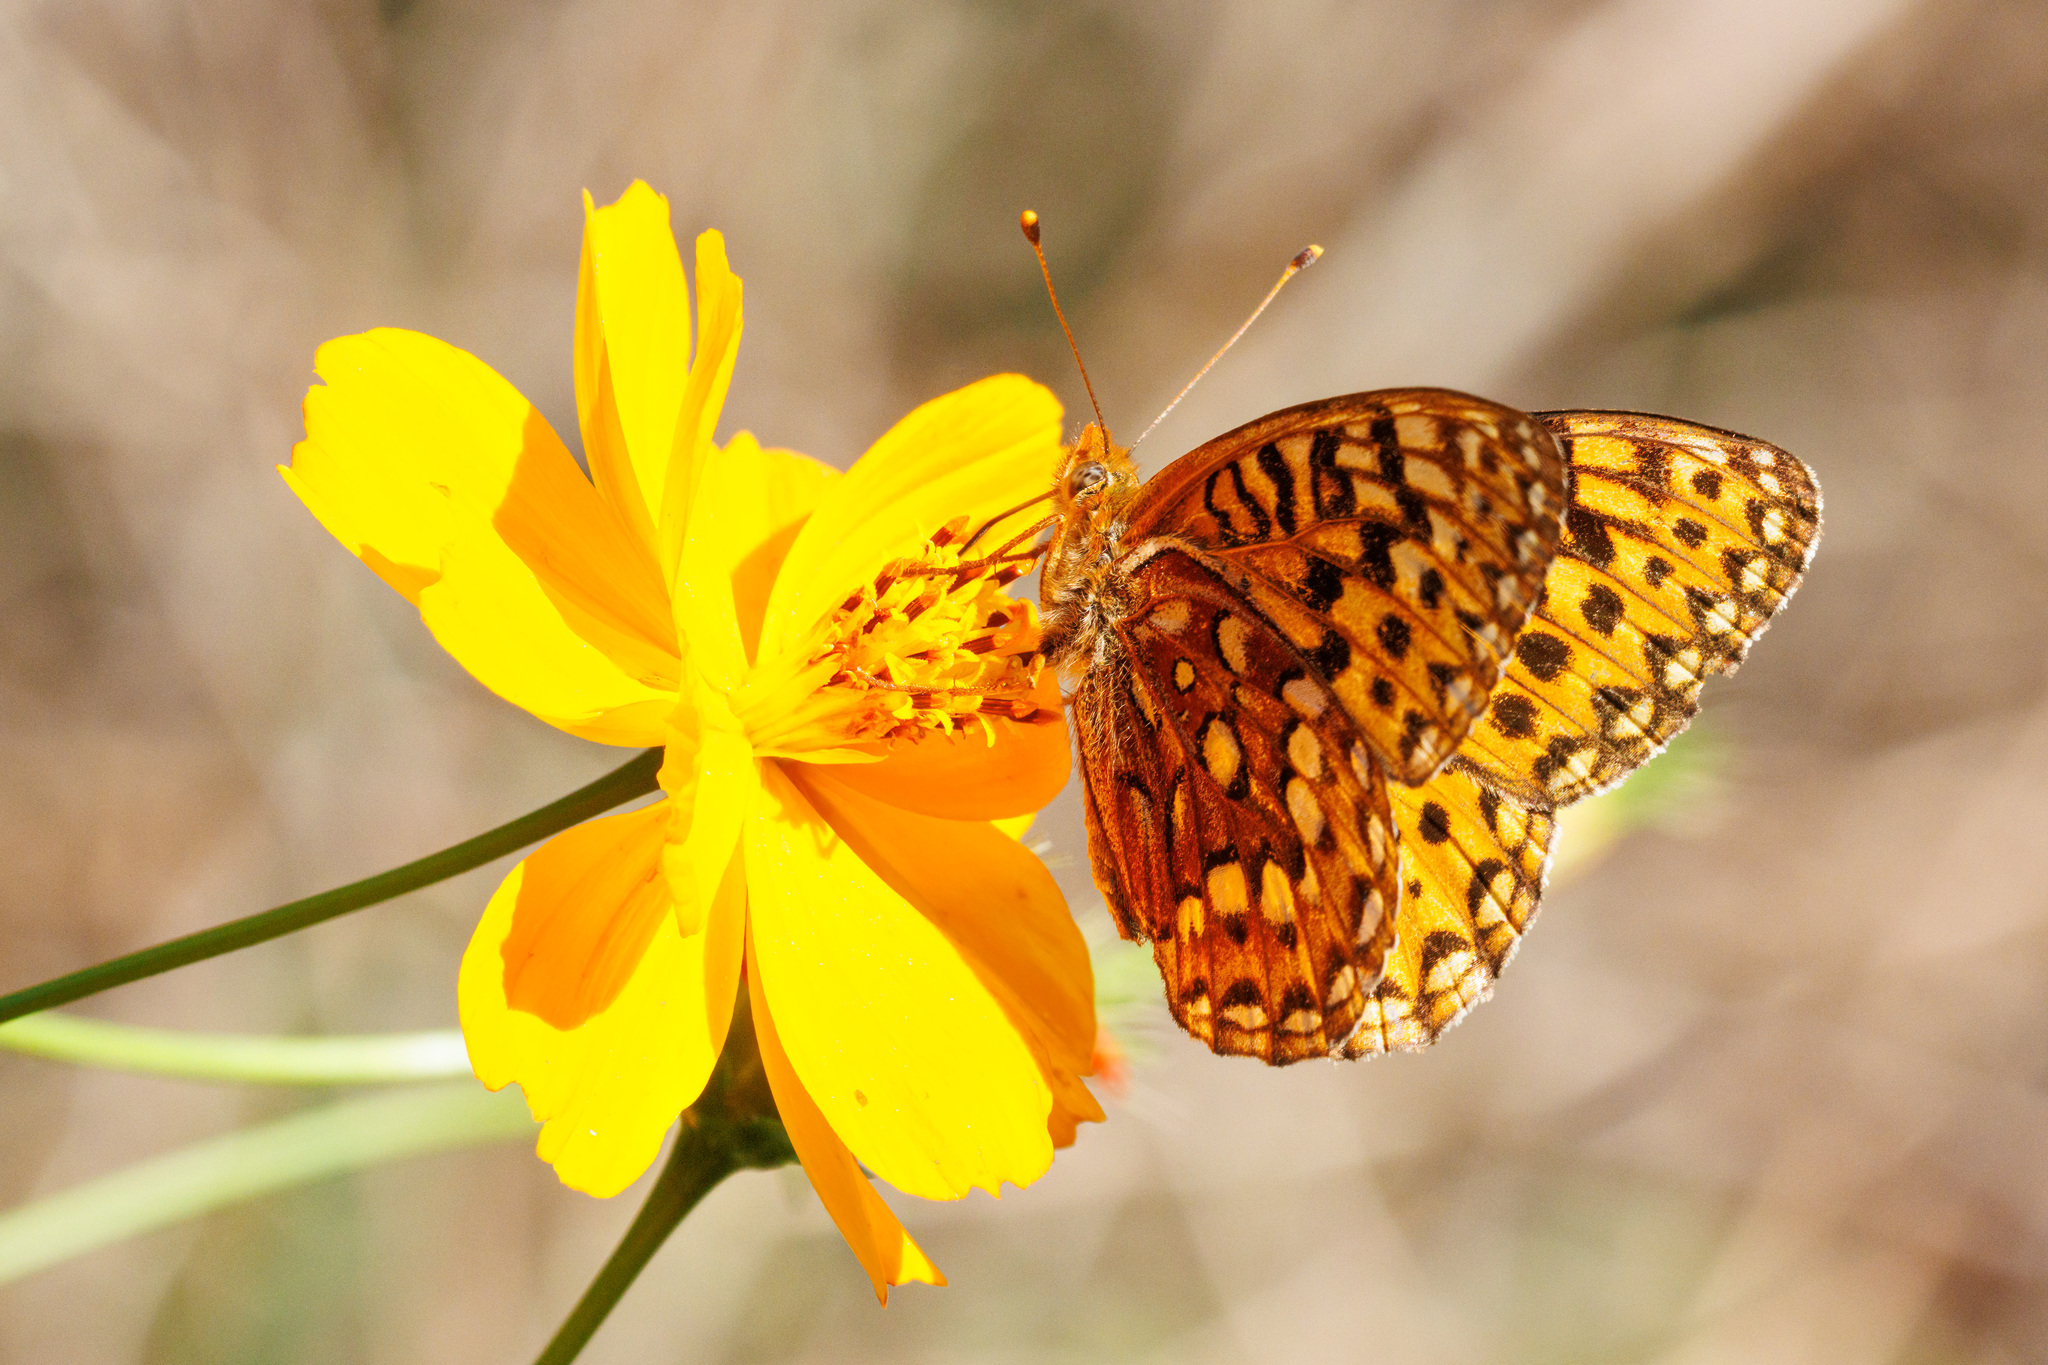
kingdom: Animalia
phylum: Arthropoda
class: Insecta
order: Lepidoptera
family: Nymphalidae
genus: Speyeria
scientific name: Speyeria hydaspe
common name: Hydaspe fritillary
